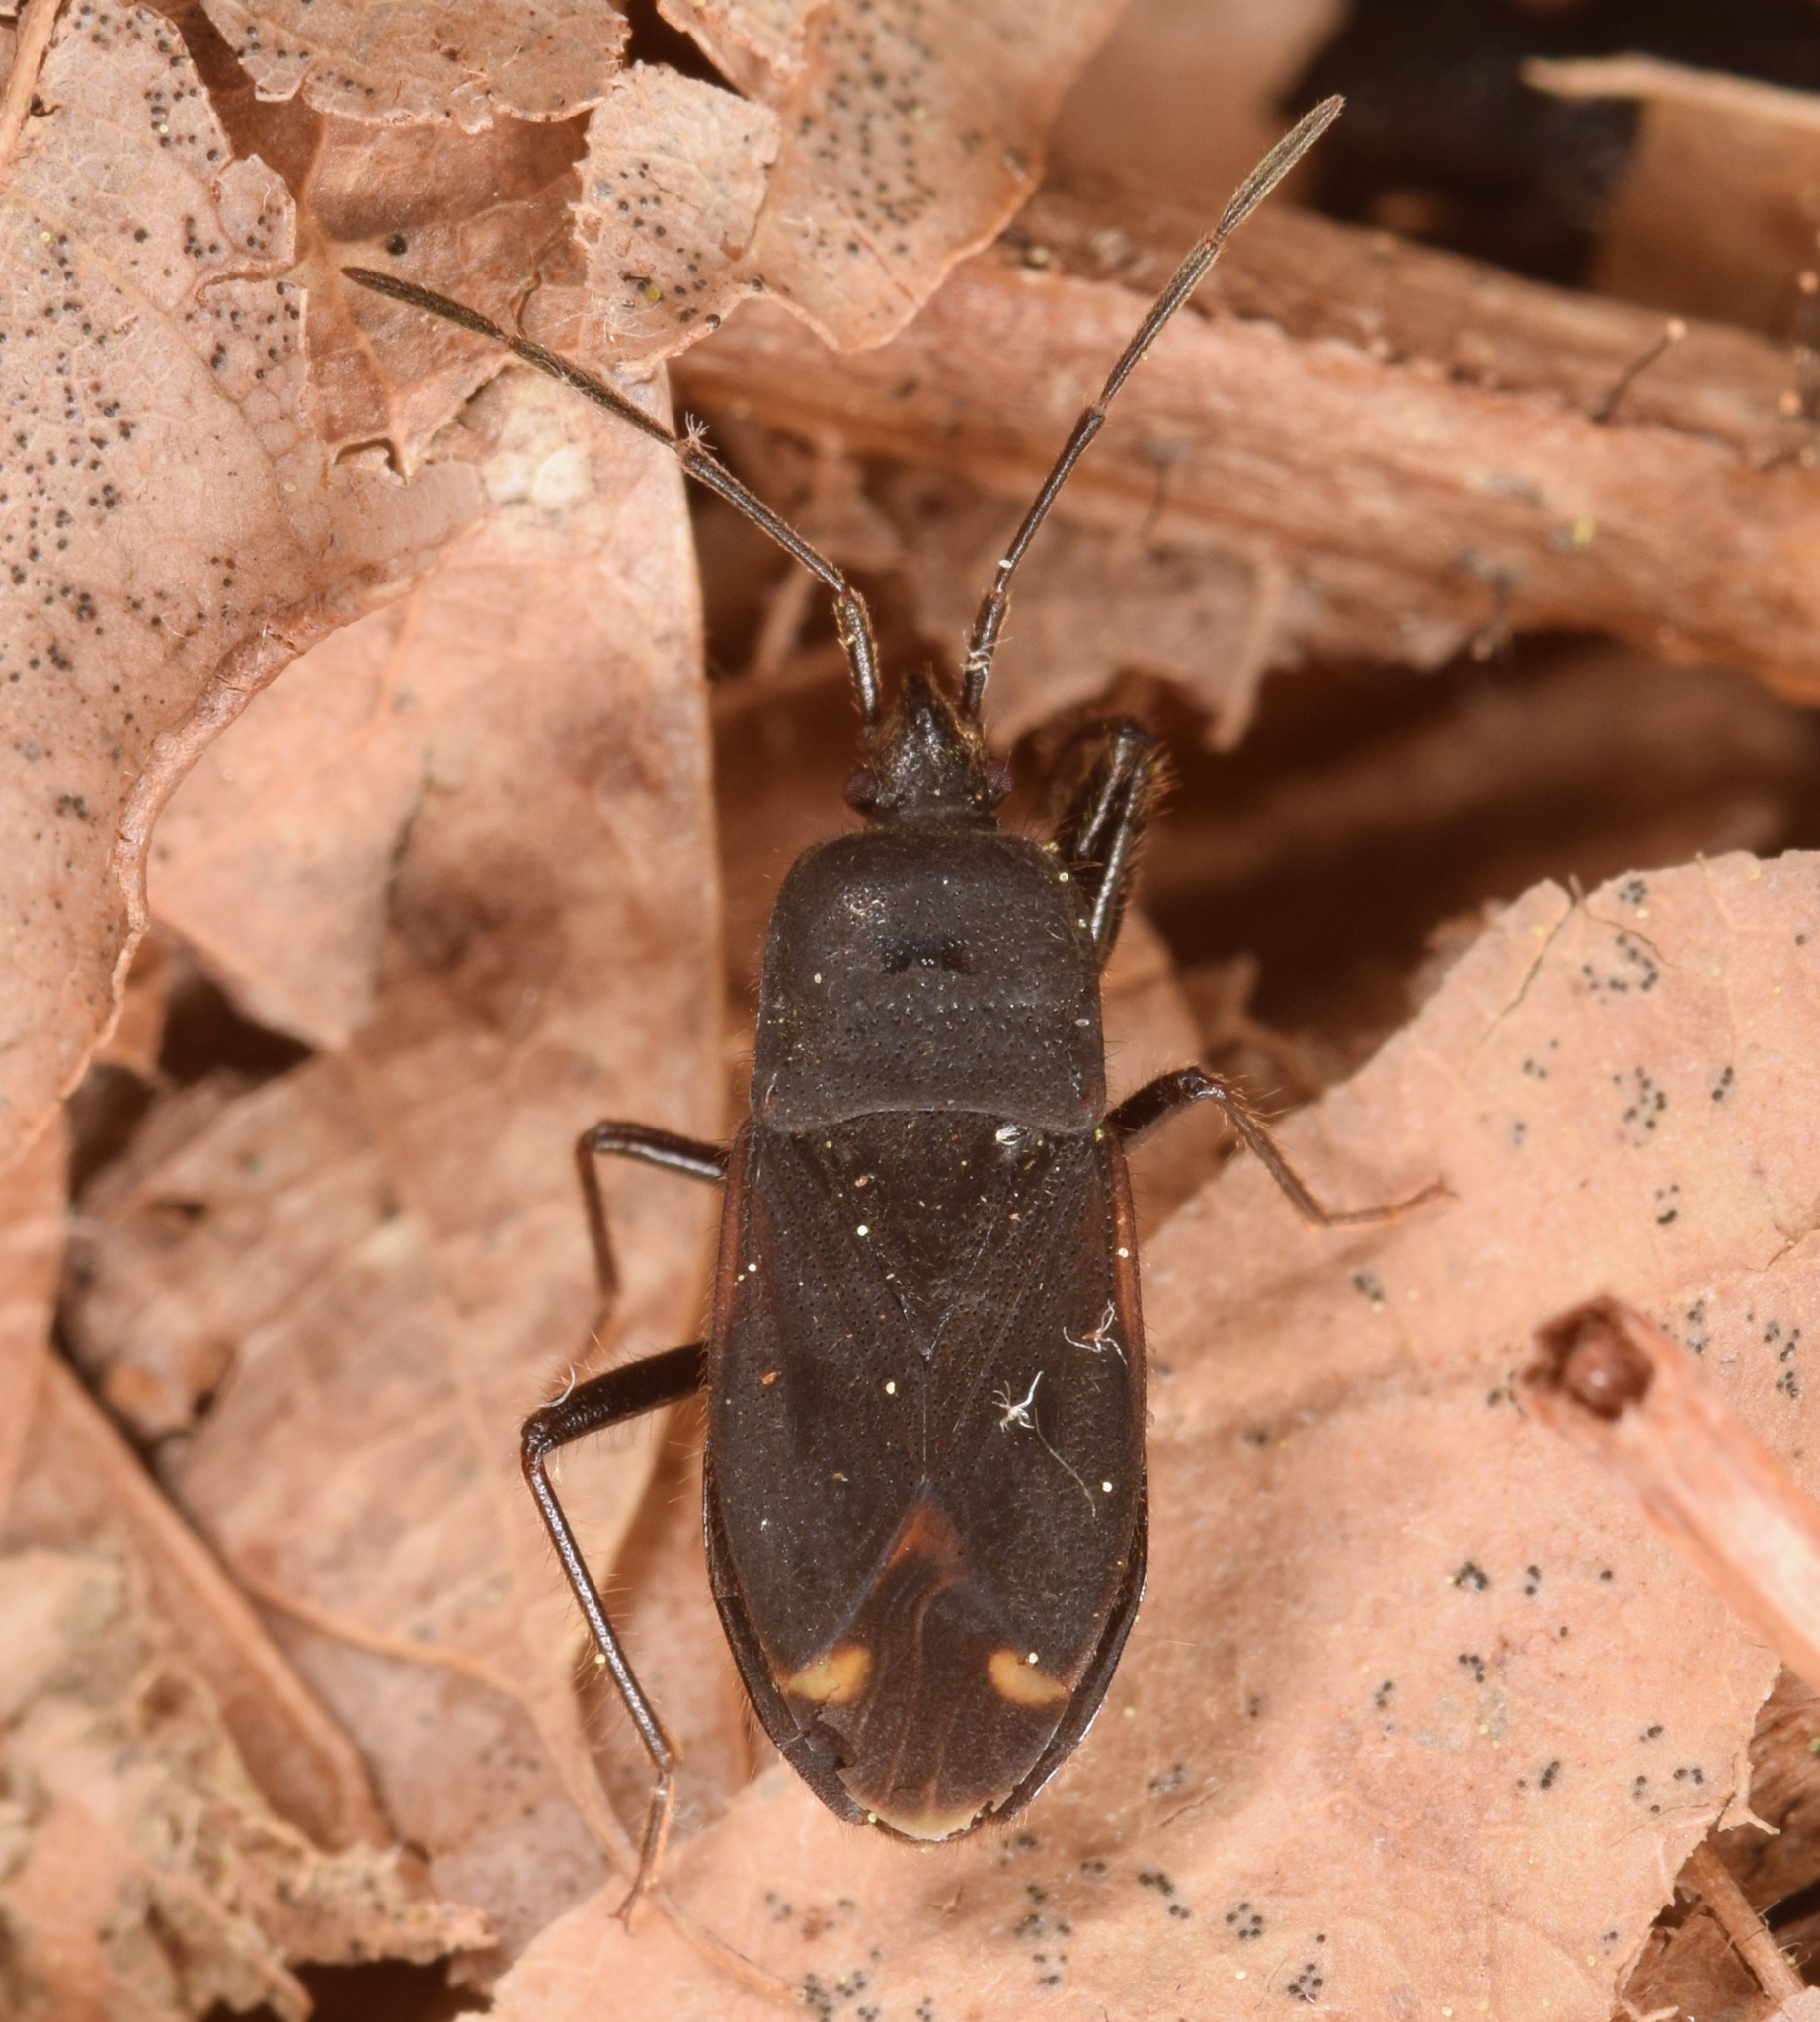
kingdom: Animalia
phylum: Arthropoda
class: Insecta
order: Hemiptera
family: Rhyparochromidae
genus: Eremocoris
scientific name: Eremocoris setosus
